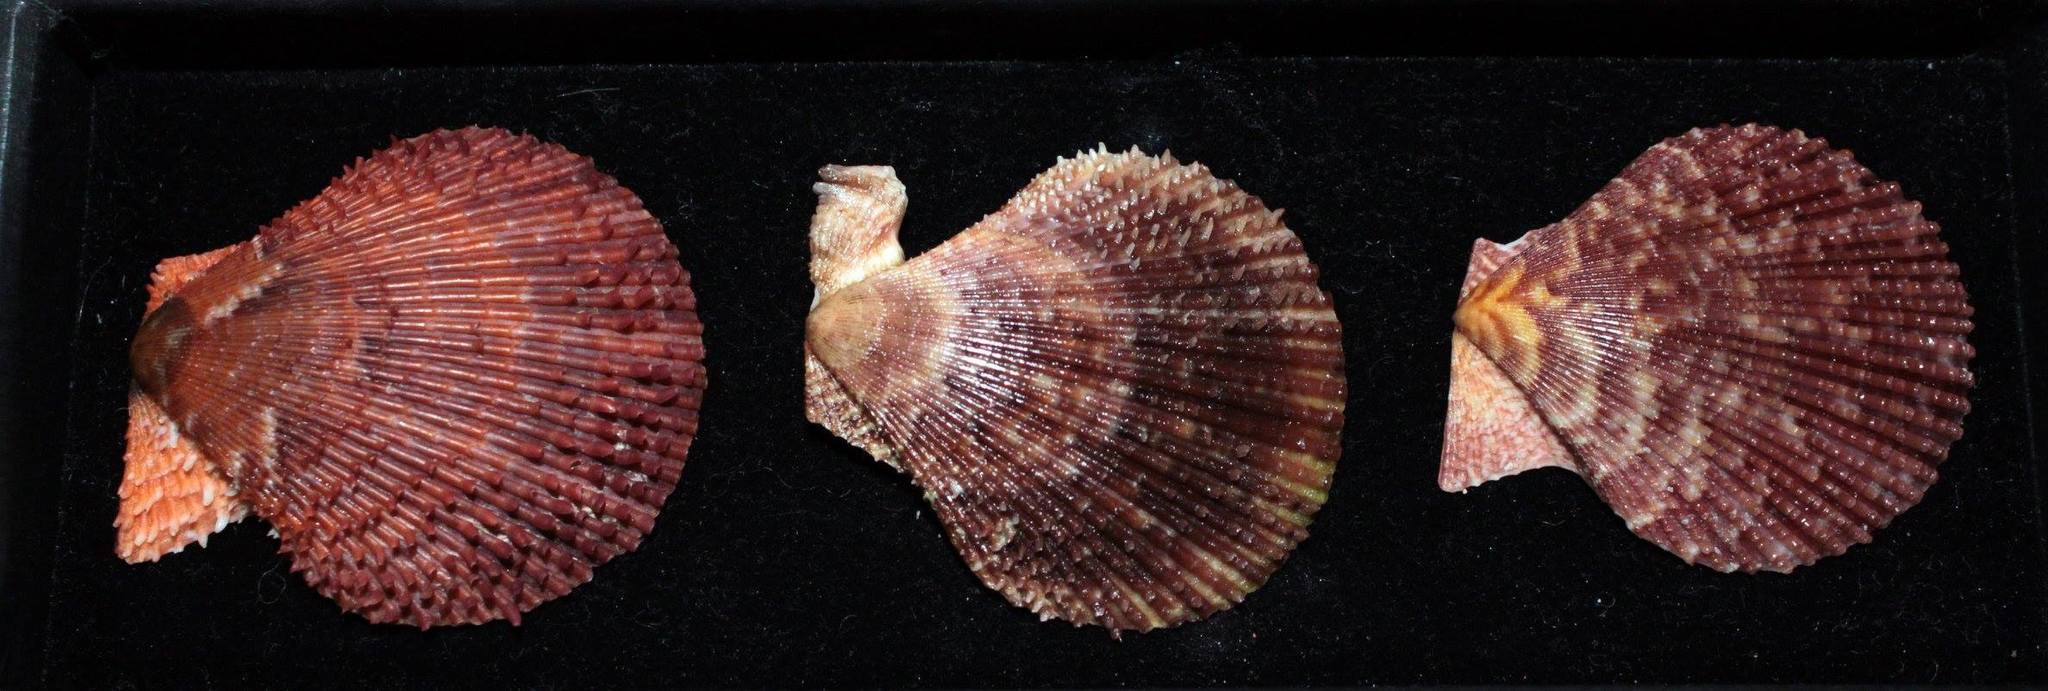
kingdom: Animalia
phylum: Mollusca
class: Bivalvia
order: Pectinida
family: Pectinidae
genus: Mimachlamys
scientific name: Mimachlamys varia
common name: Variegated scallop
